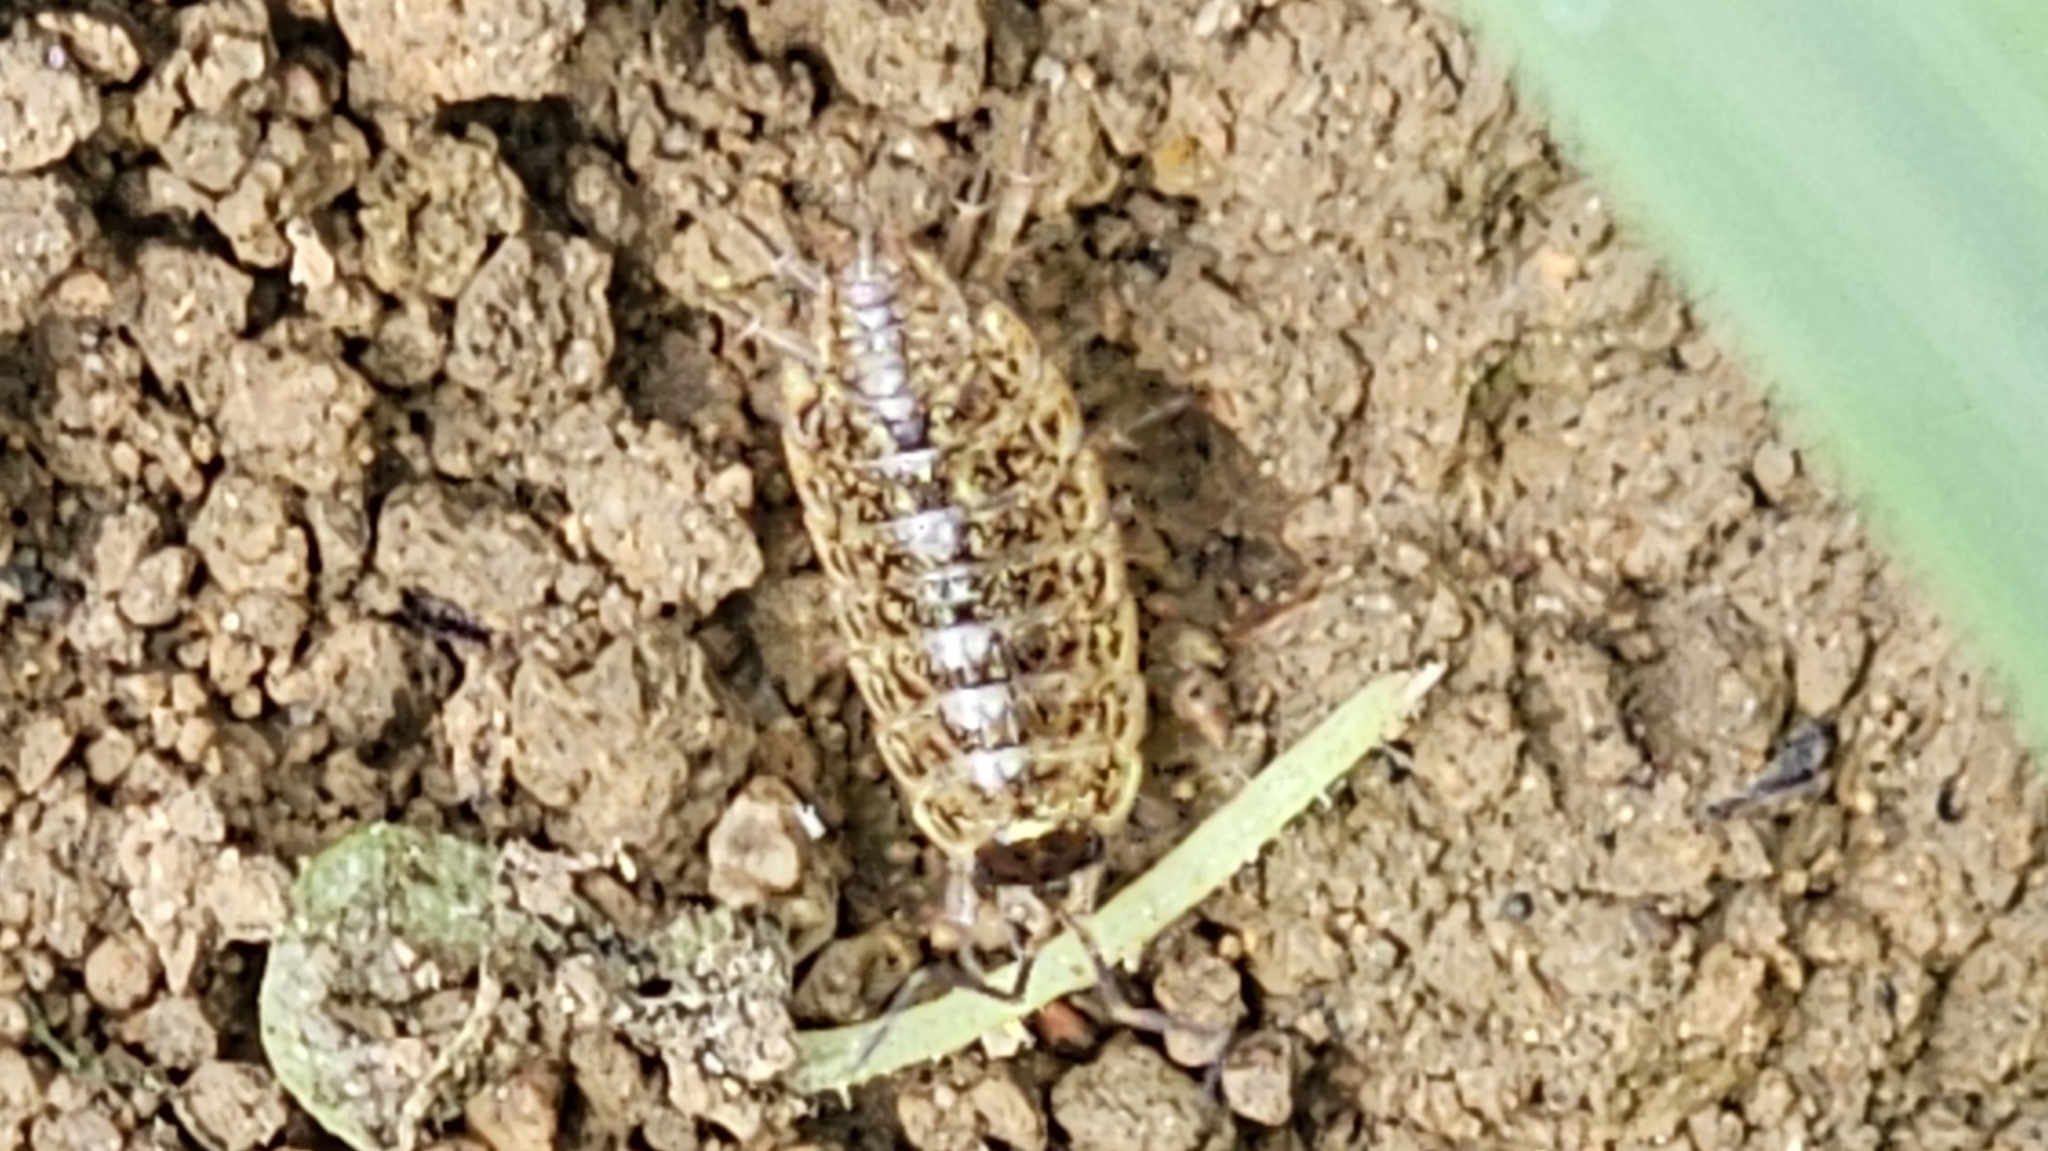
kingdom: Animalia
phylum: Arthropoda
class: Malacostraca
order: Isopoda
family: Philosciidae
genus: Philoscia
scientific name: Philoscia muscorum
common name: Common striped woodlouse
